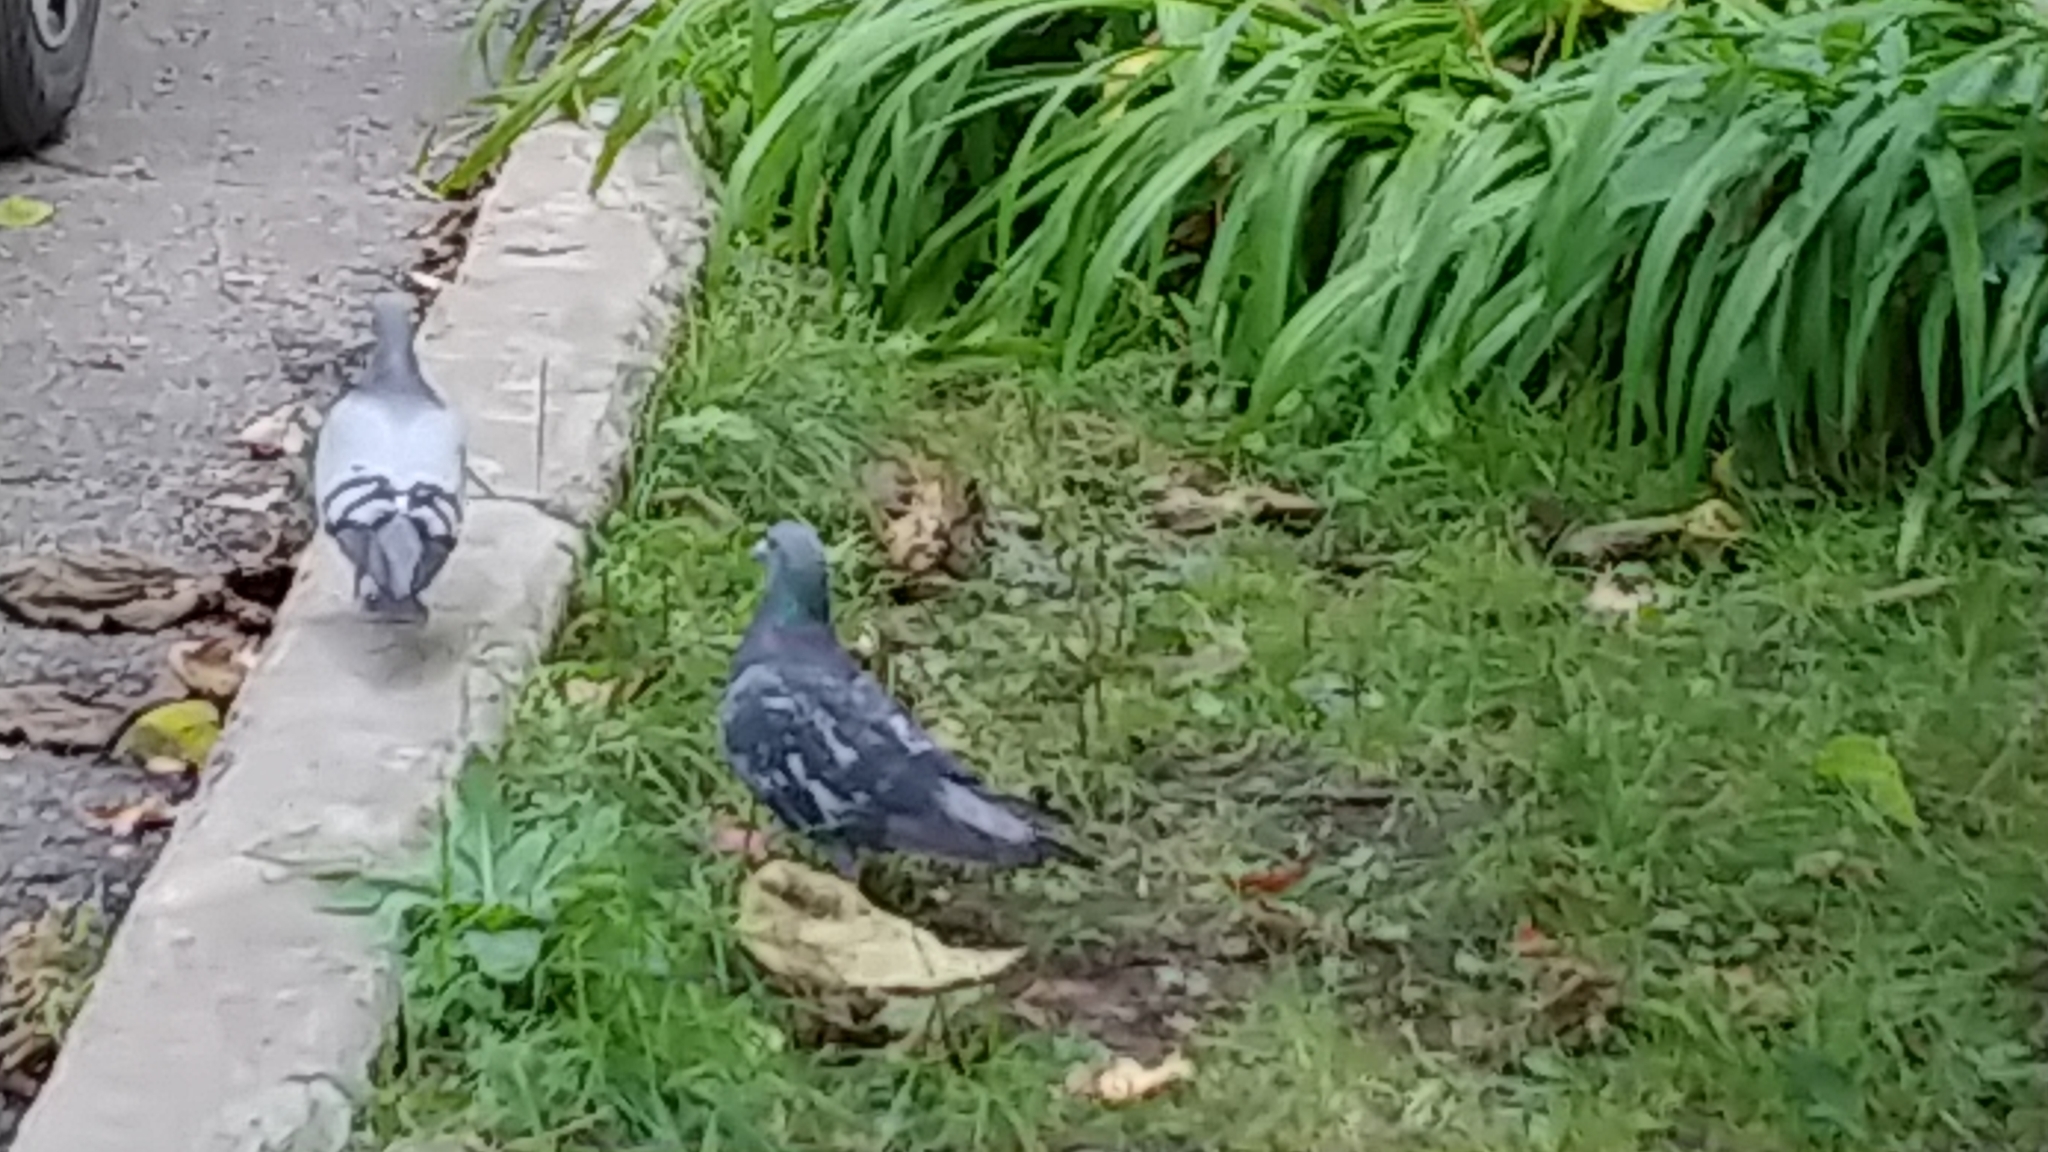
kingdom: Animalia
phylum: Chordata
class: Aves
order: Columbiformes
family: Columbidae
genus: Columba
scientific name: Columba livia
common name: Rock pigeon
